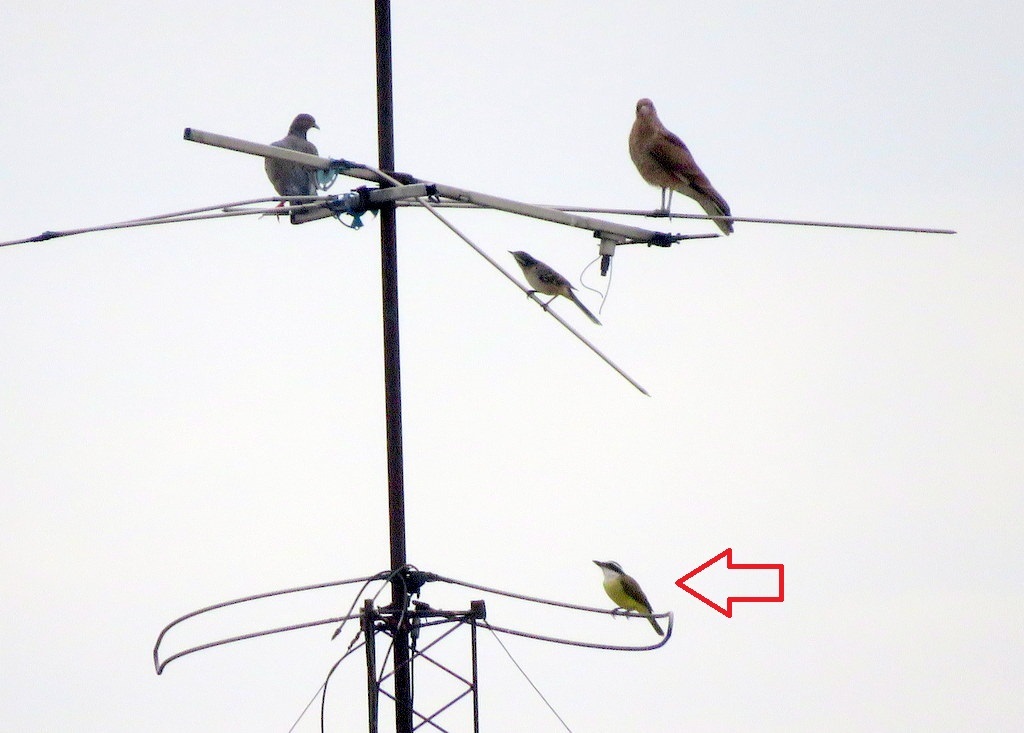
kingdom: Animalia
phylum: Chordata
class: Aves
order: Passeriformes
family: Tyrannidae
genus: Pitangus
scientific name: Pitangus sulphuratus
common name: Great kiskadee
